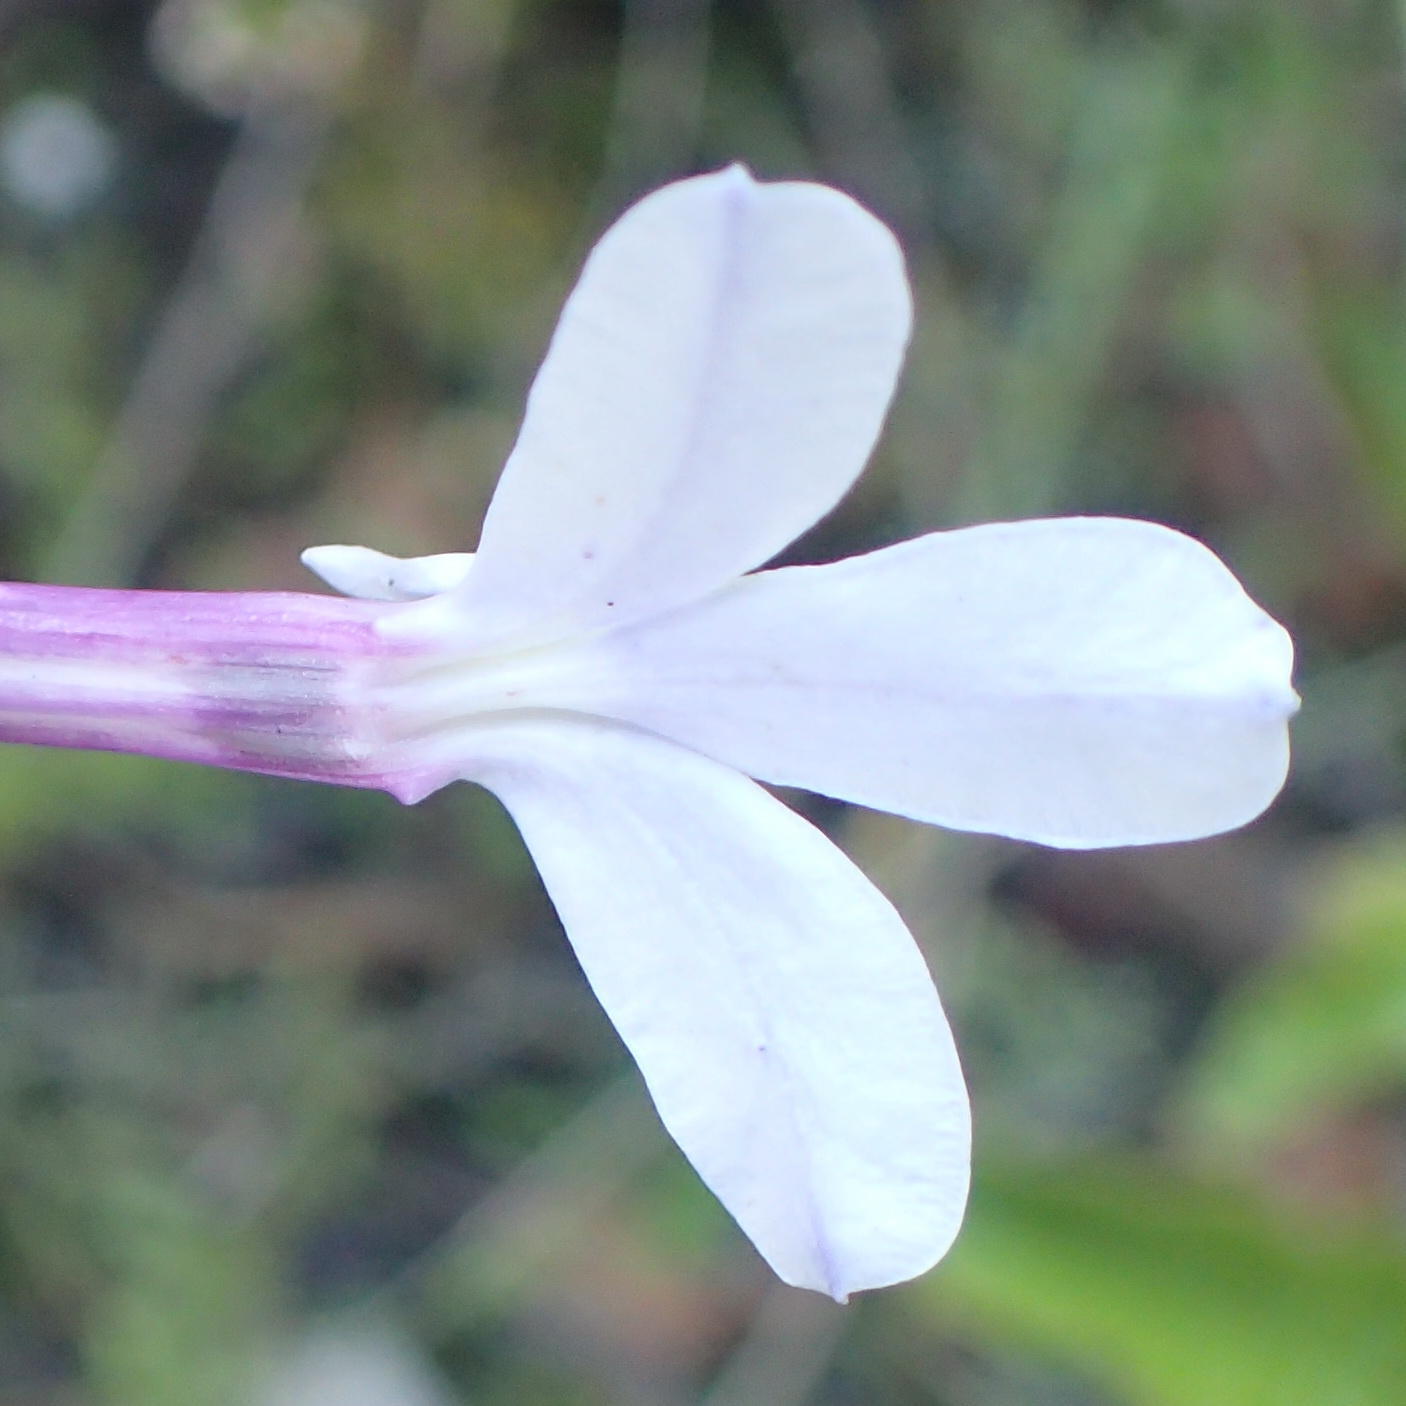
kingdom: Plantae
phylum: Tracheophyta
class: Magnoliopsida
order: Asterales
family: Campanulaceae
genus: Lobelia
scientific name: Lobelia tomentosa
